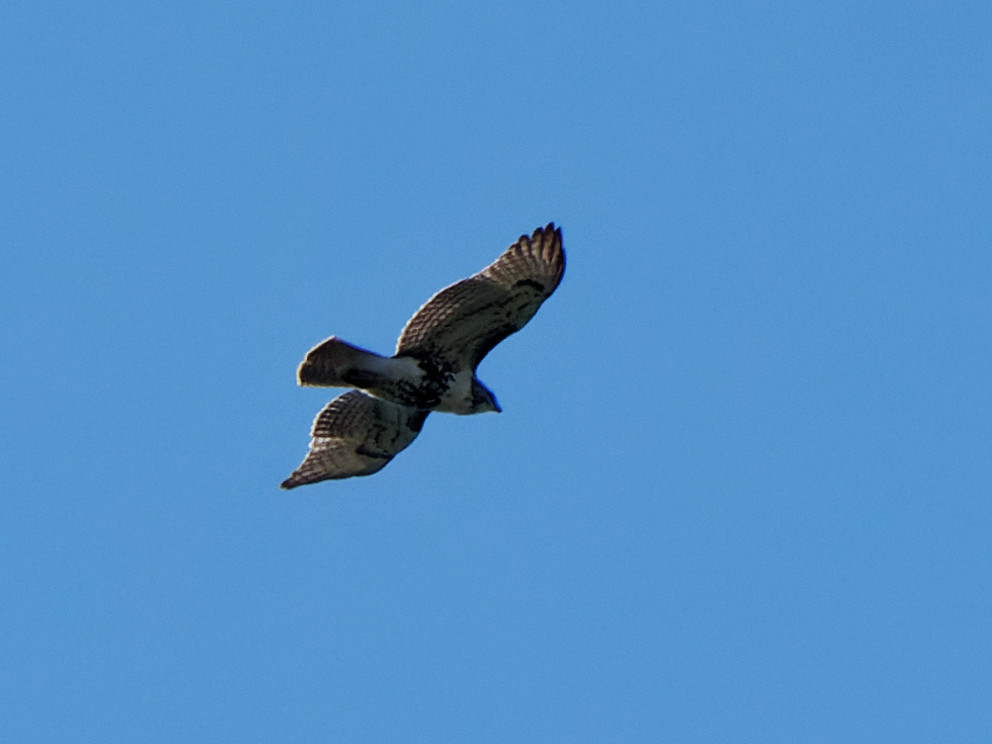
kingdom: Animalia
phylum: Chordata
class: Aves
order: Accipitriformes
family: Accipitridae
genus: Buteo
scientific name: Buteo jamaicensis
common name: Red-tailed hawk
